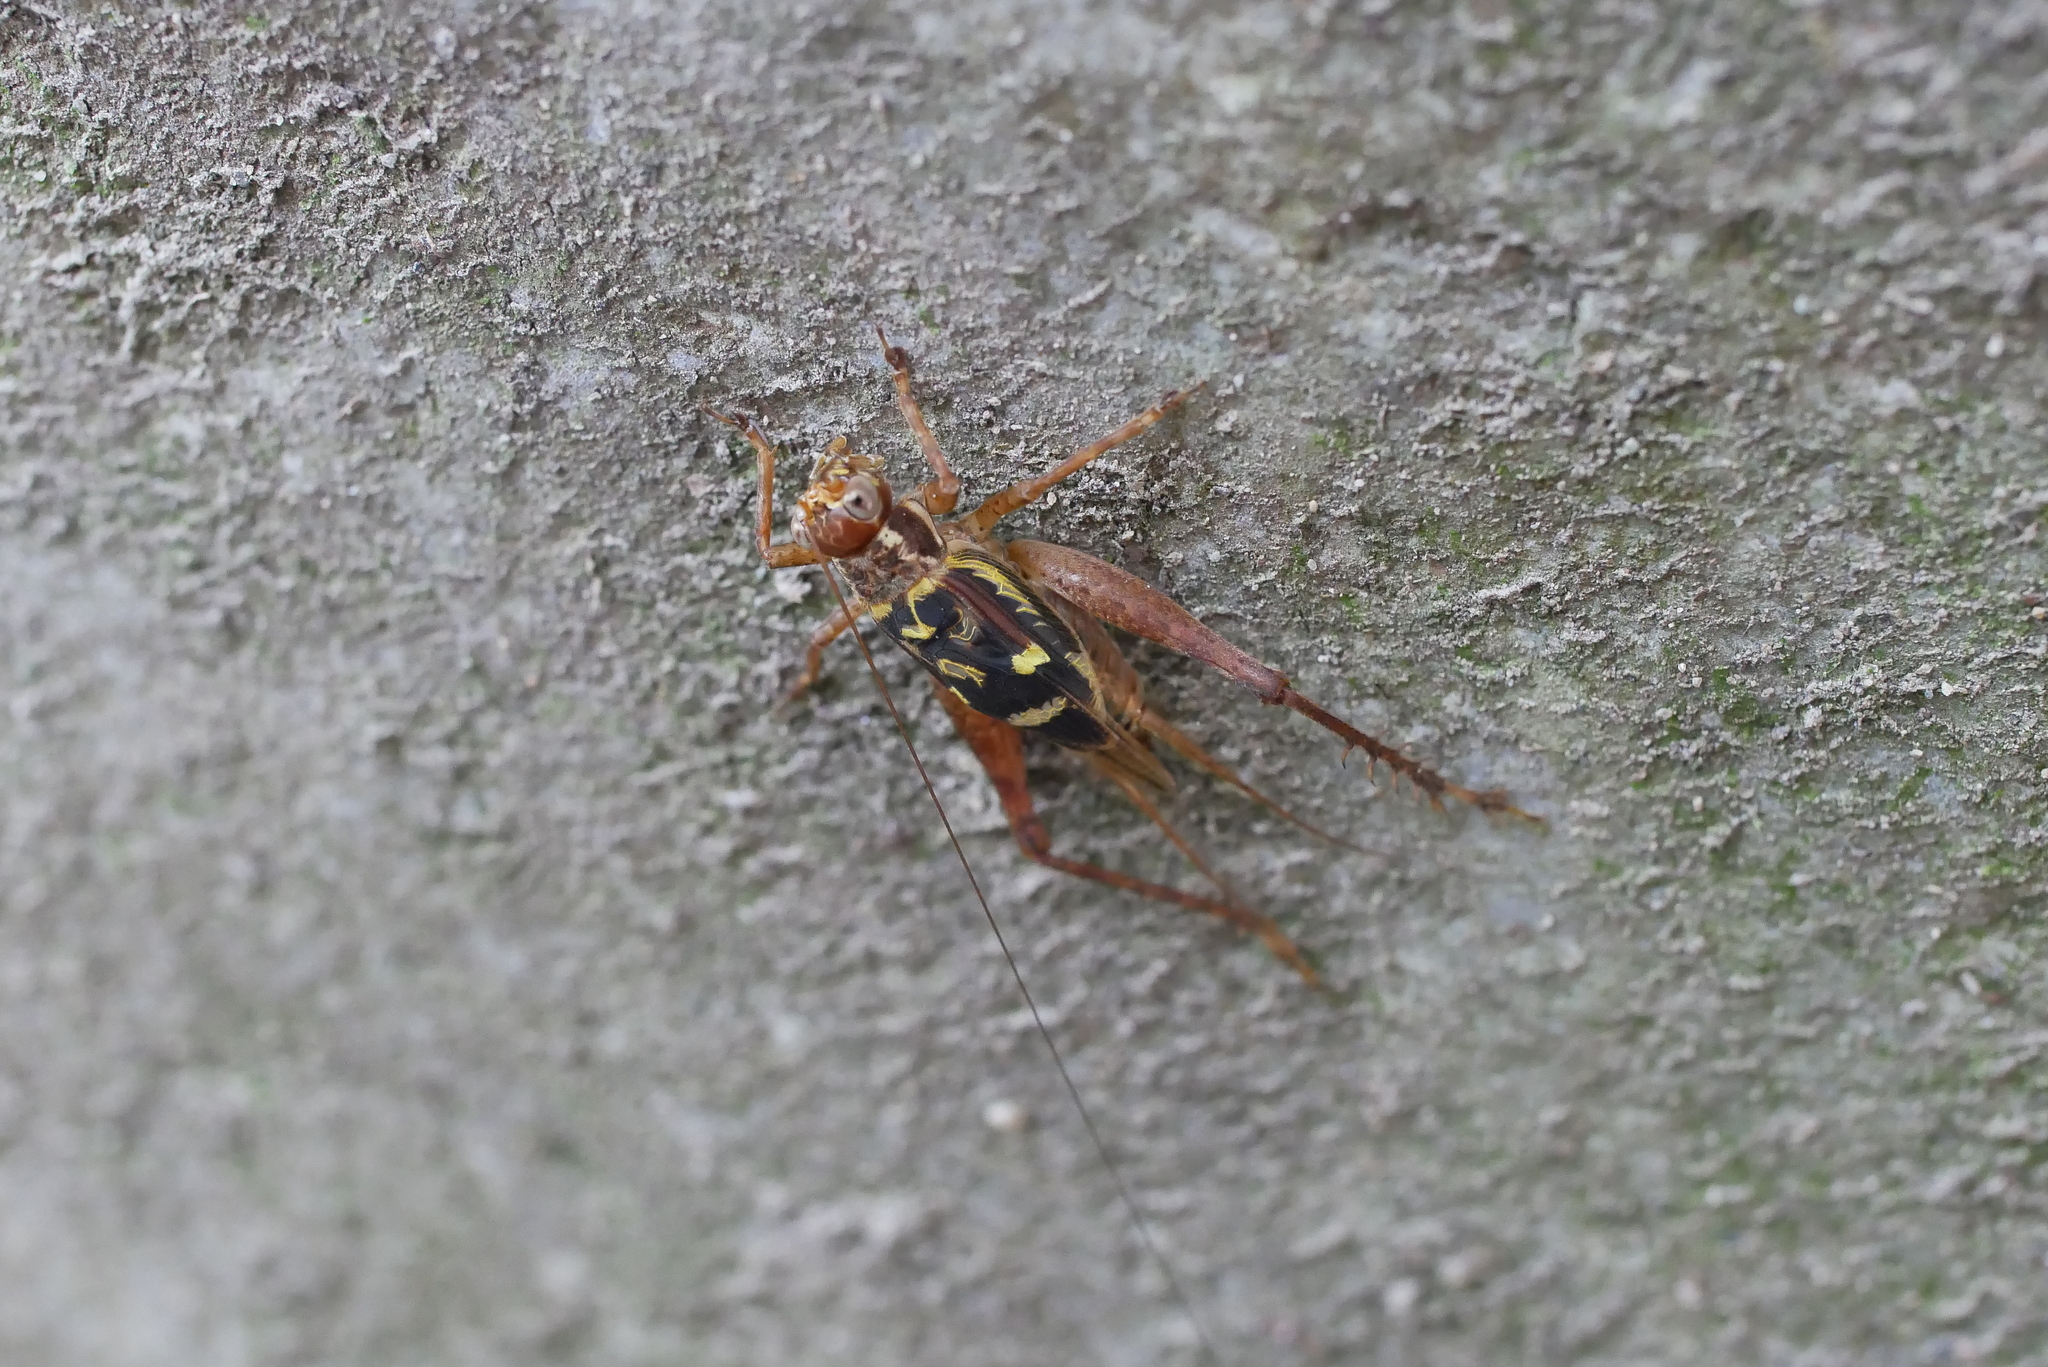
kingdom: Animalia
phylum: Arthropoda
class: Insecta
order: Orthoptera
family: Gryllidae
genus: Cardiodactylus
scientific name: Cardiodactylus guttulus
